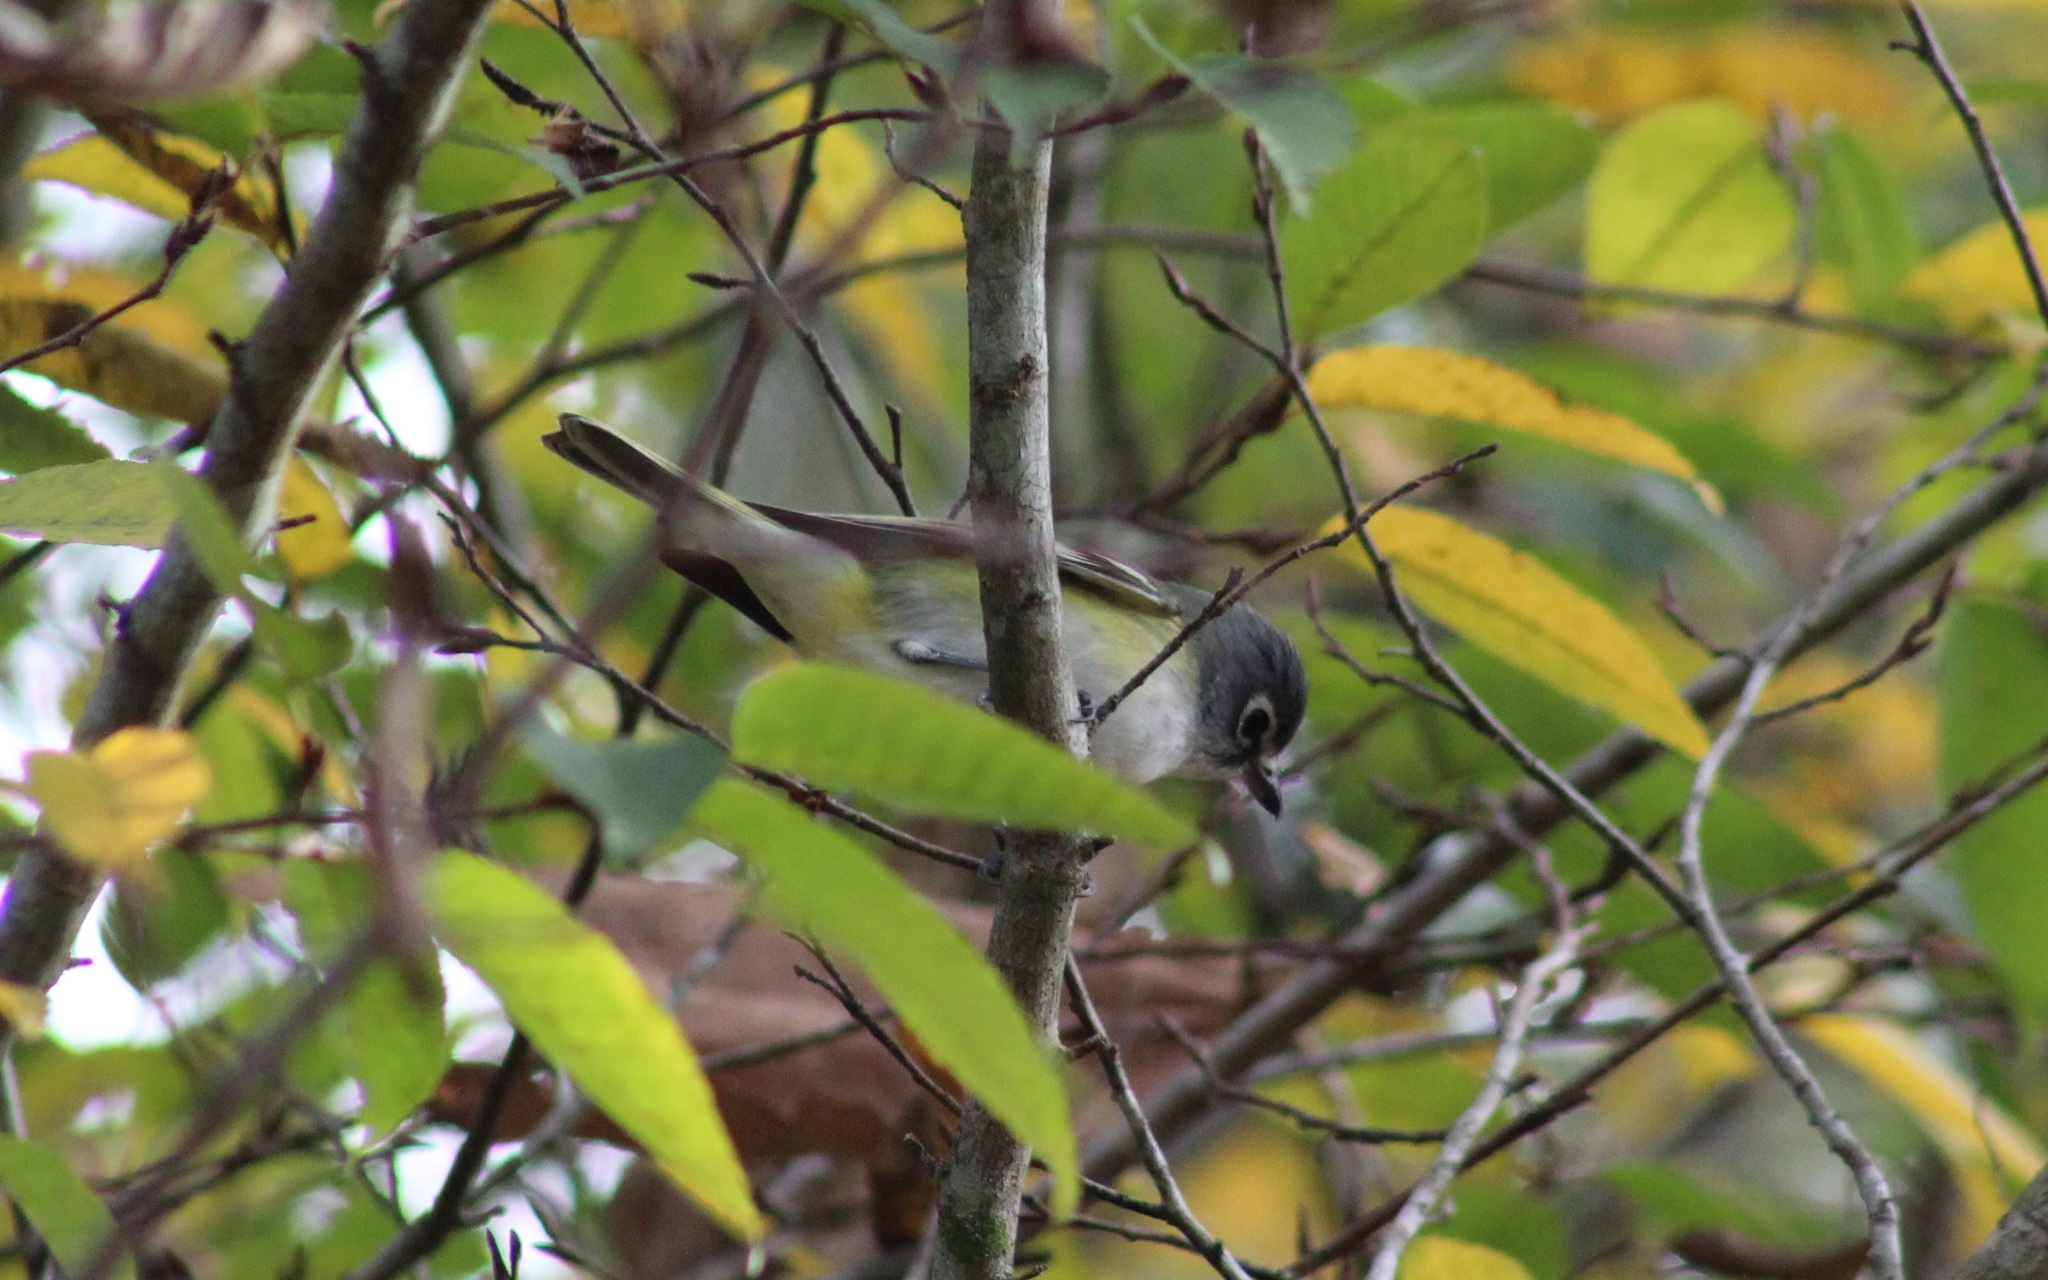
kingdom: Animalia
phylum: Chordata
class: Aves
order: Passeriformes
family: Vireonidae
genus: Vireo
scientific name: Vireo solitarius
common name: Blue-headed vireo
